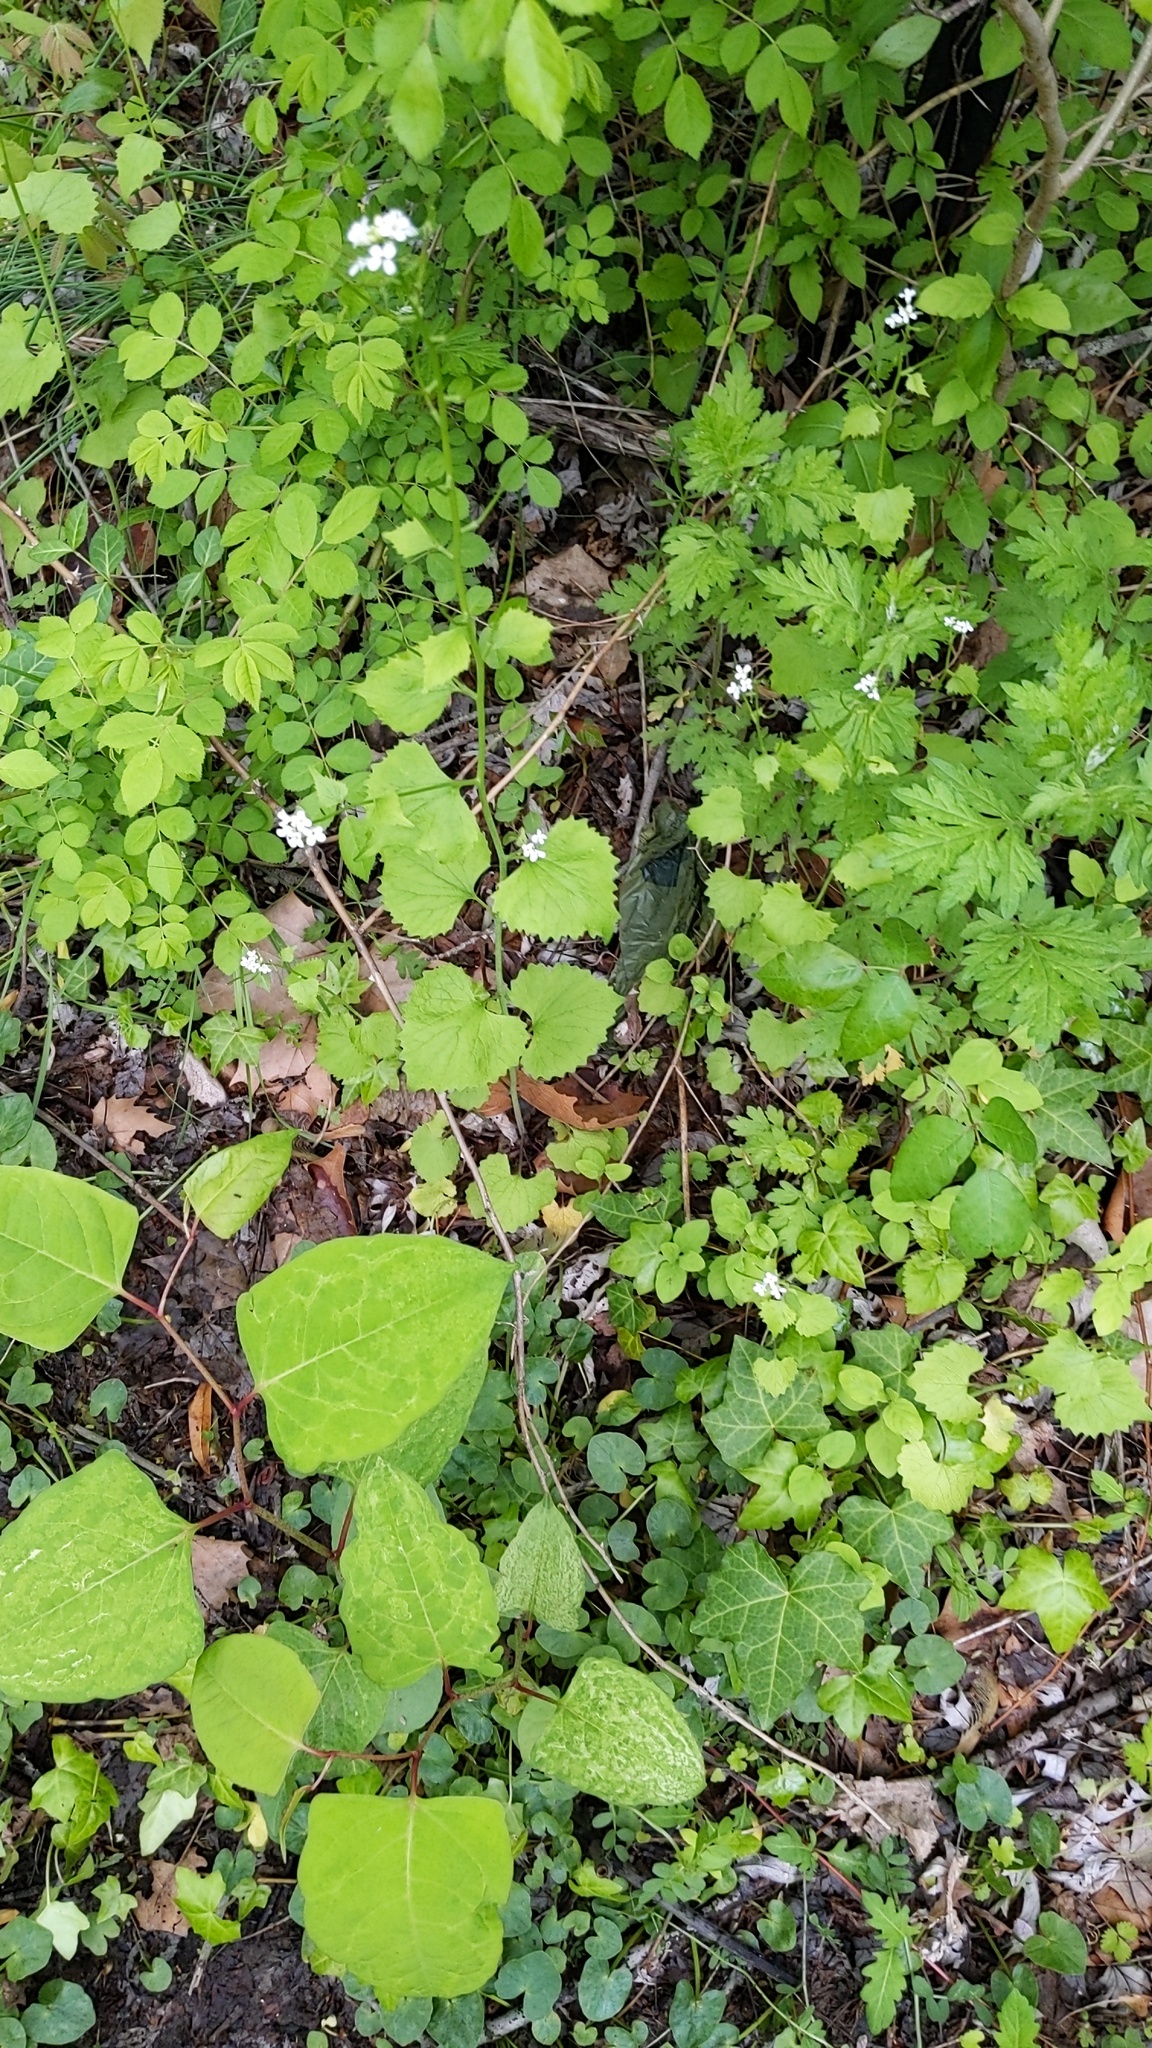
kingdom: Plantae
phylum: Tracheophyta
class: Magnoliopsida
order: Brassicales
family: Brassicaceae
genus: Alliaria
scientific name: Alliaria petiolata
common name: Garlic mustard
